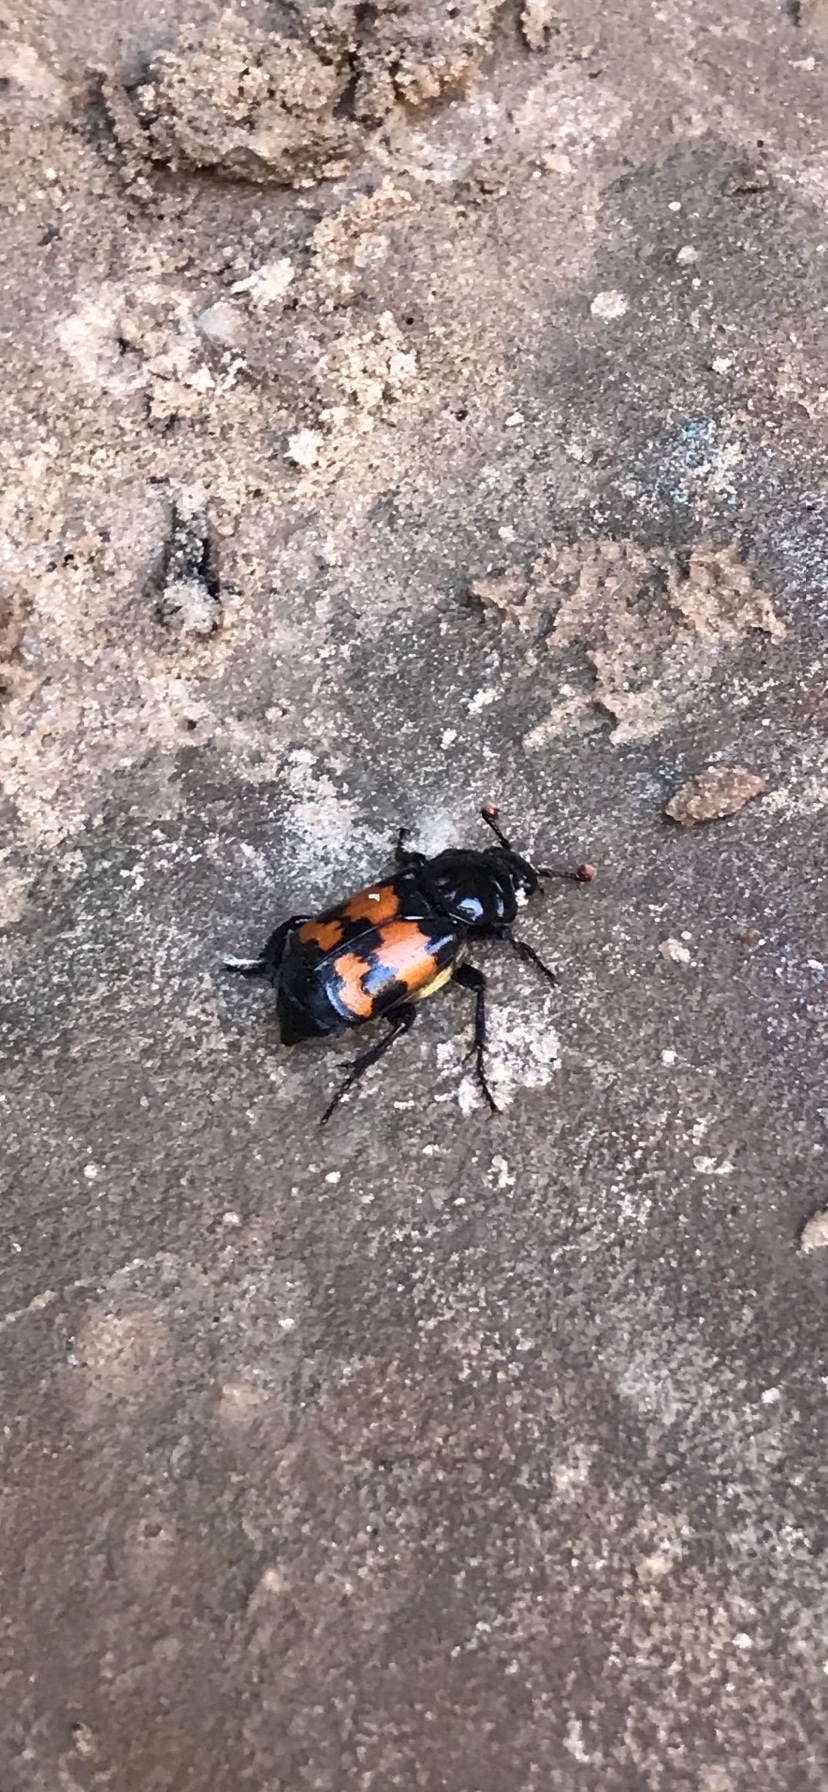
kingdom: Animalia
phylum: Arthropoda
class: Insecta
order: Coleoptera
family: Staphylinidae
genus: Nicrophorus
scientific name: Nicrophorus investigator
